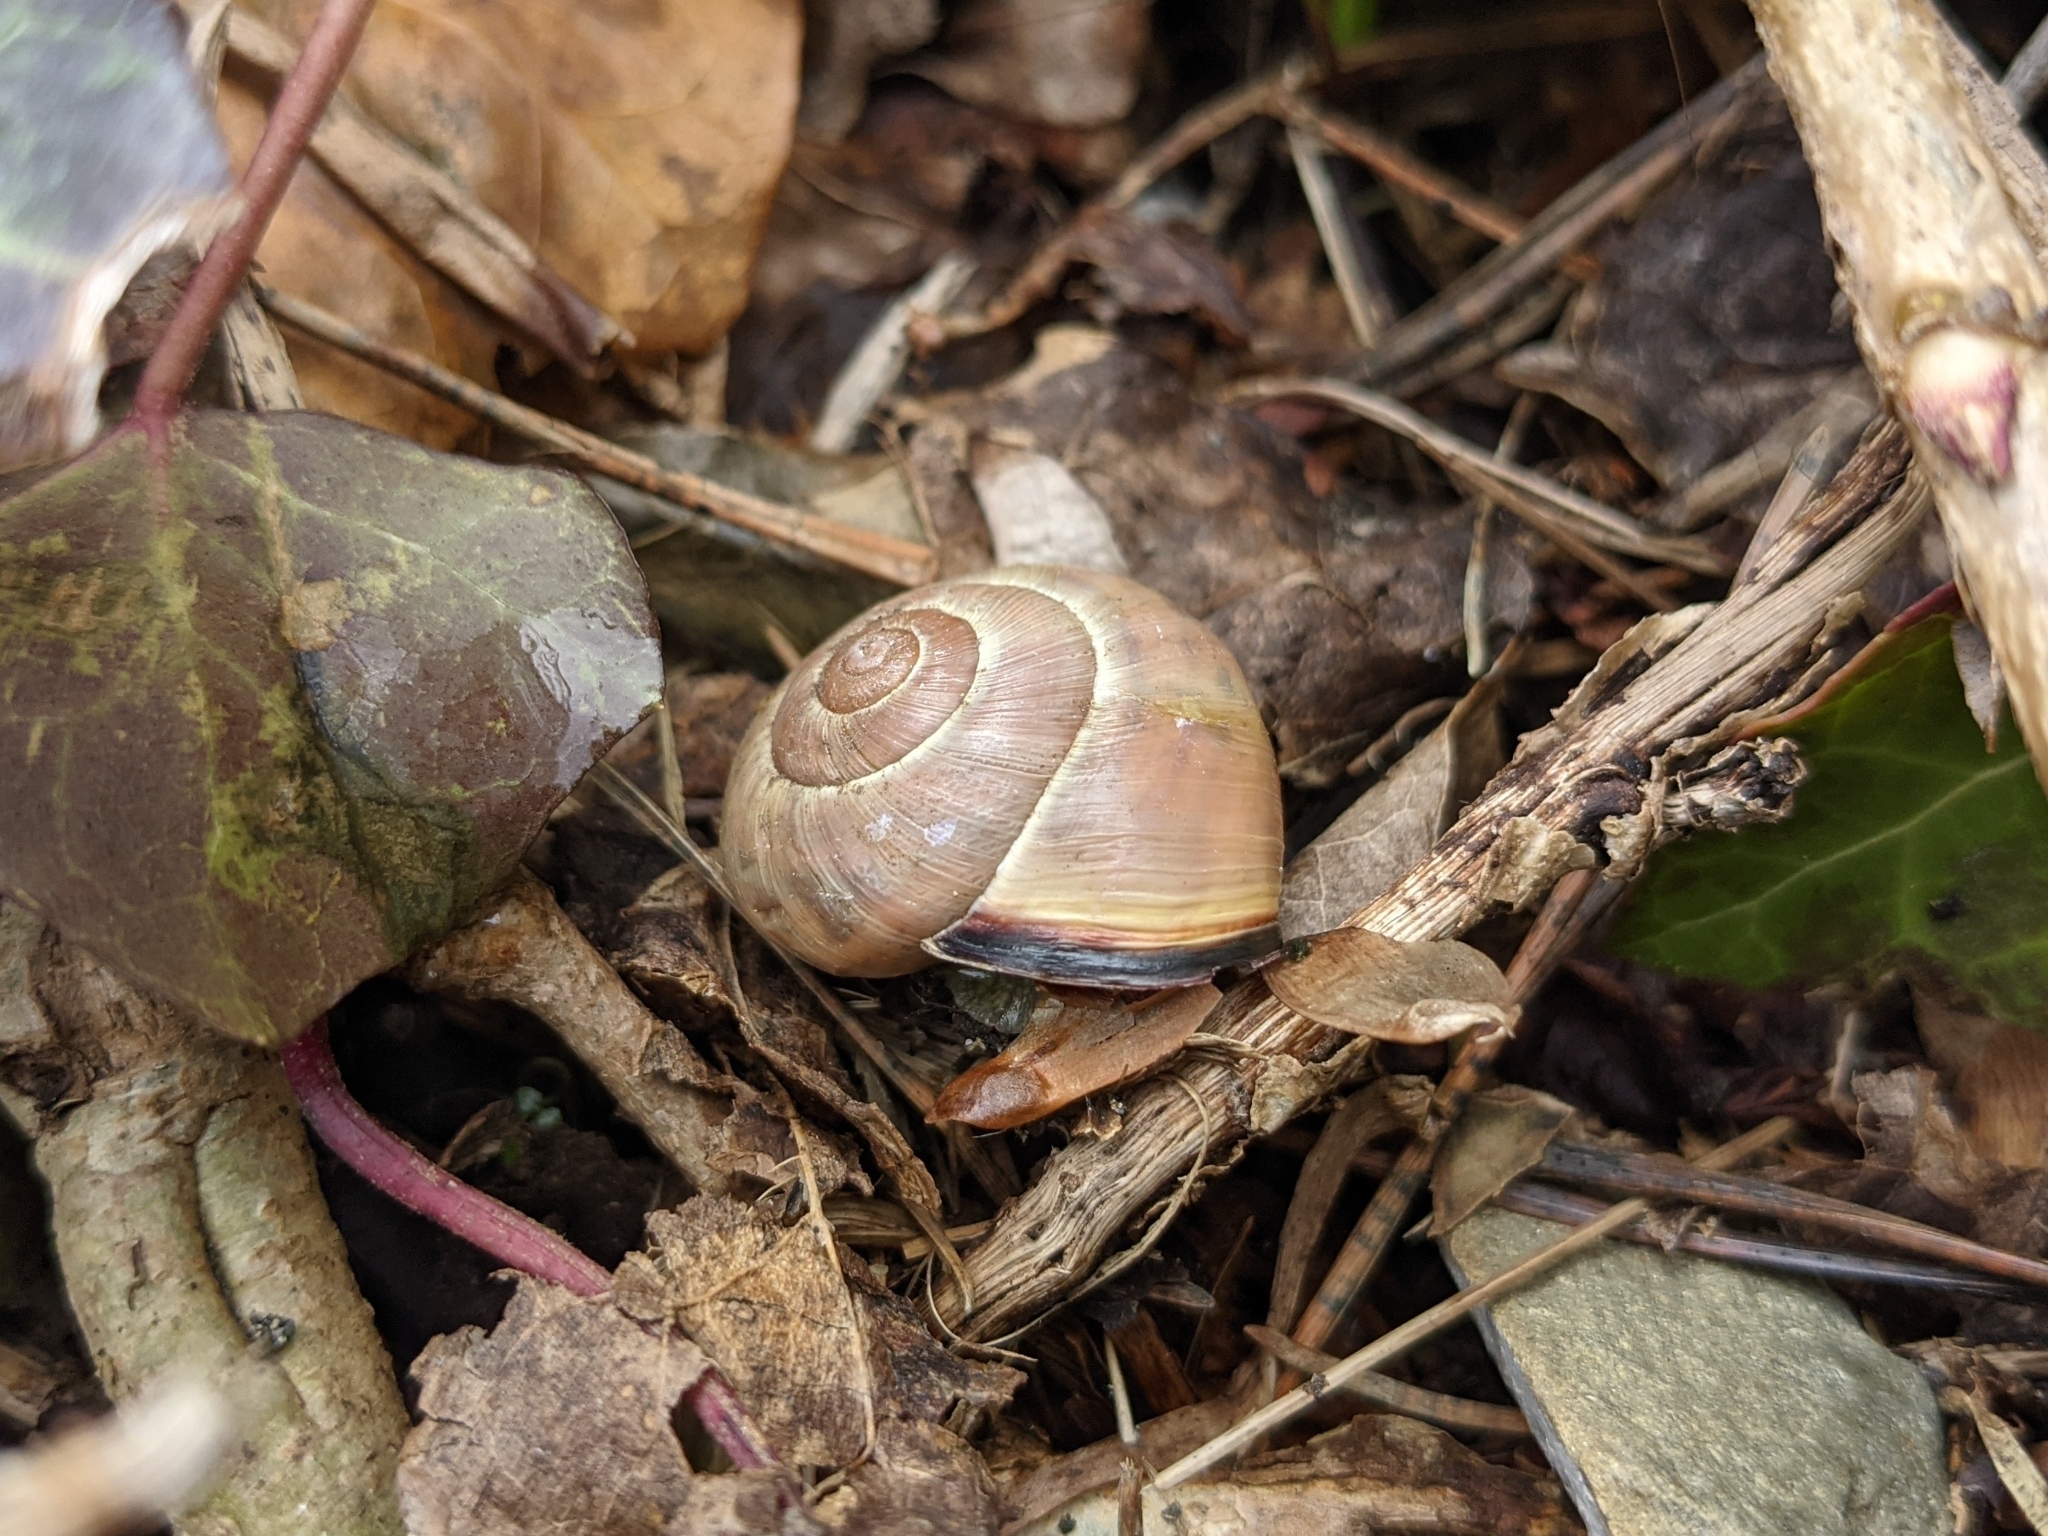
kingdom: Animalia
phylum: Mollusca
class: Gastropoda
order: Stylommatophora
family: Helicidae
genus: Cepaea
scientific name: Cepaea nemoralis
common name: Grovesnail
